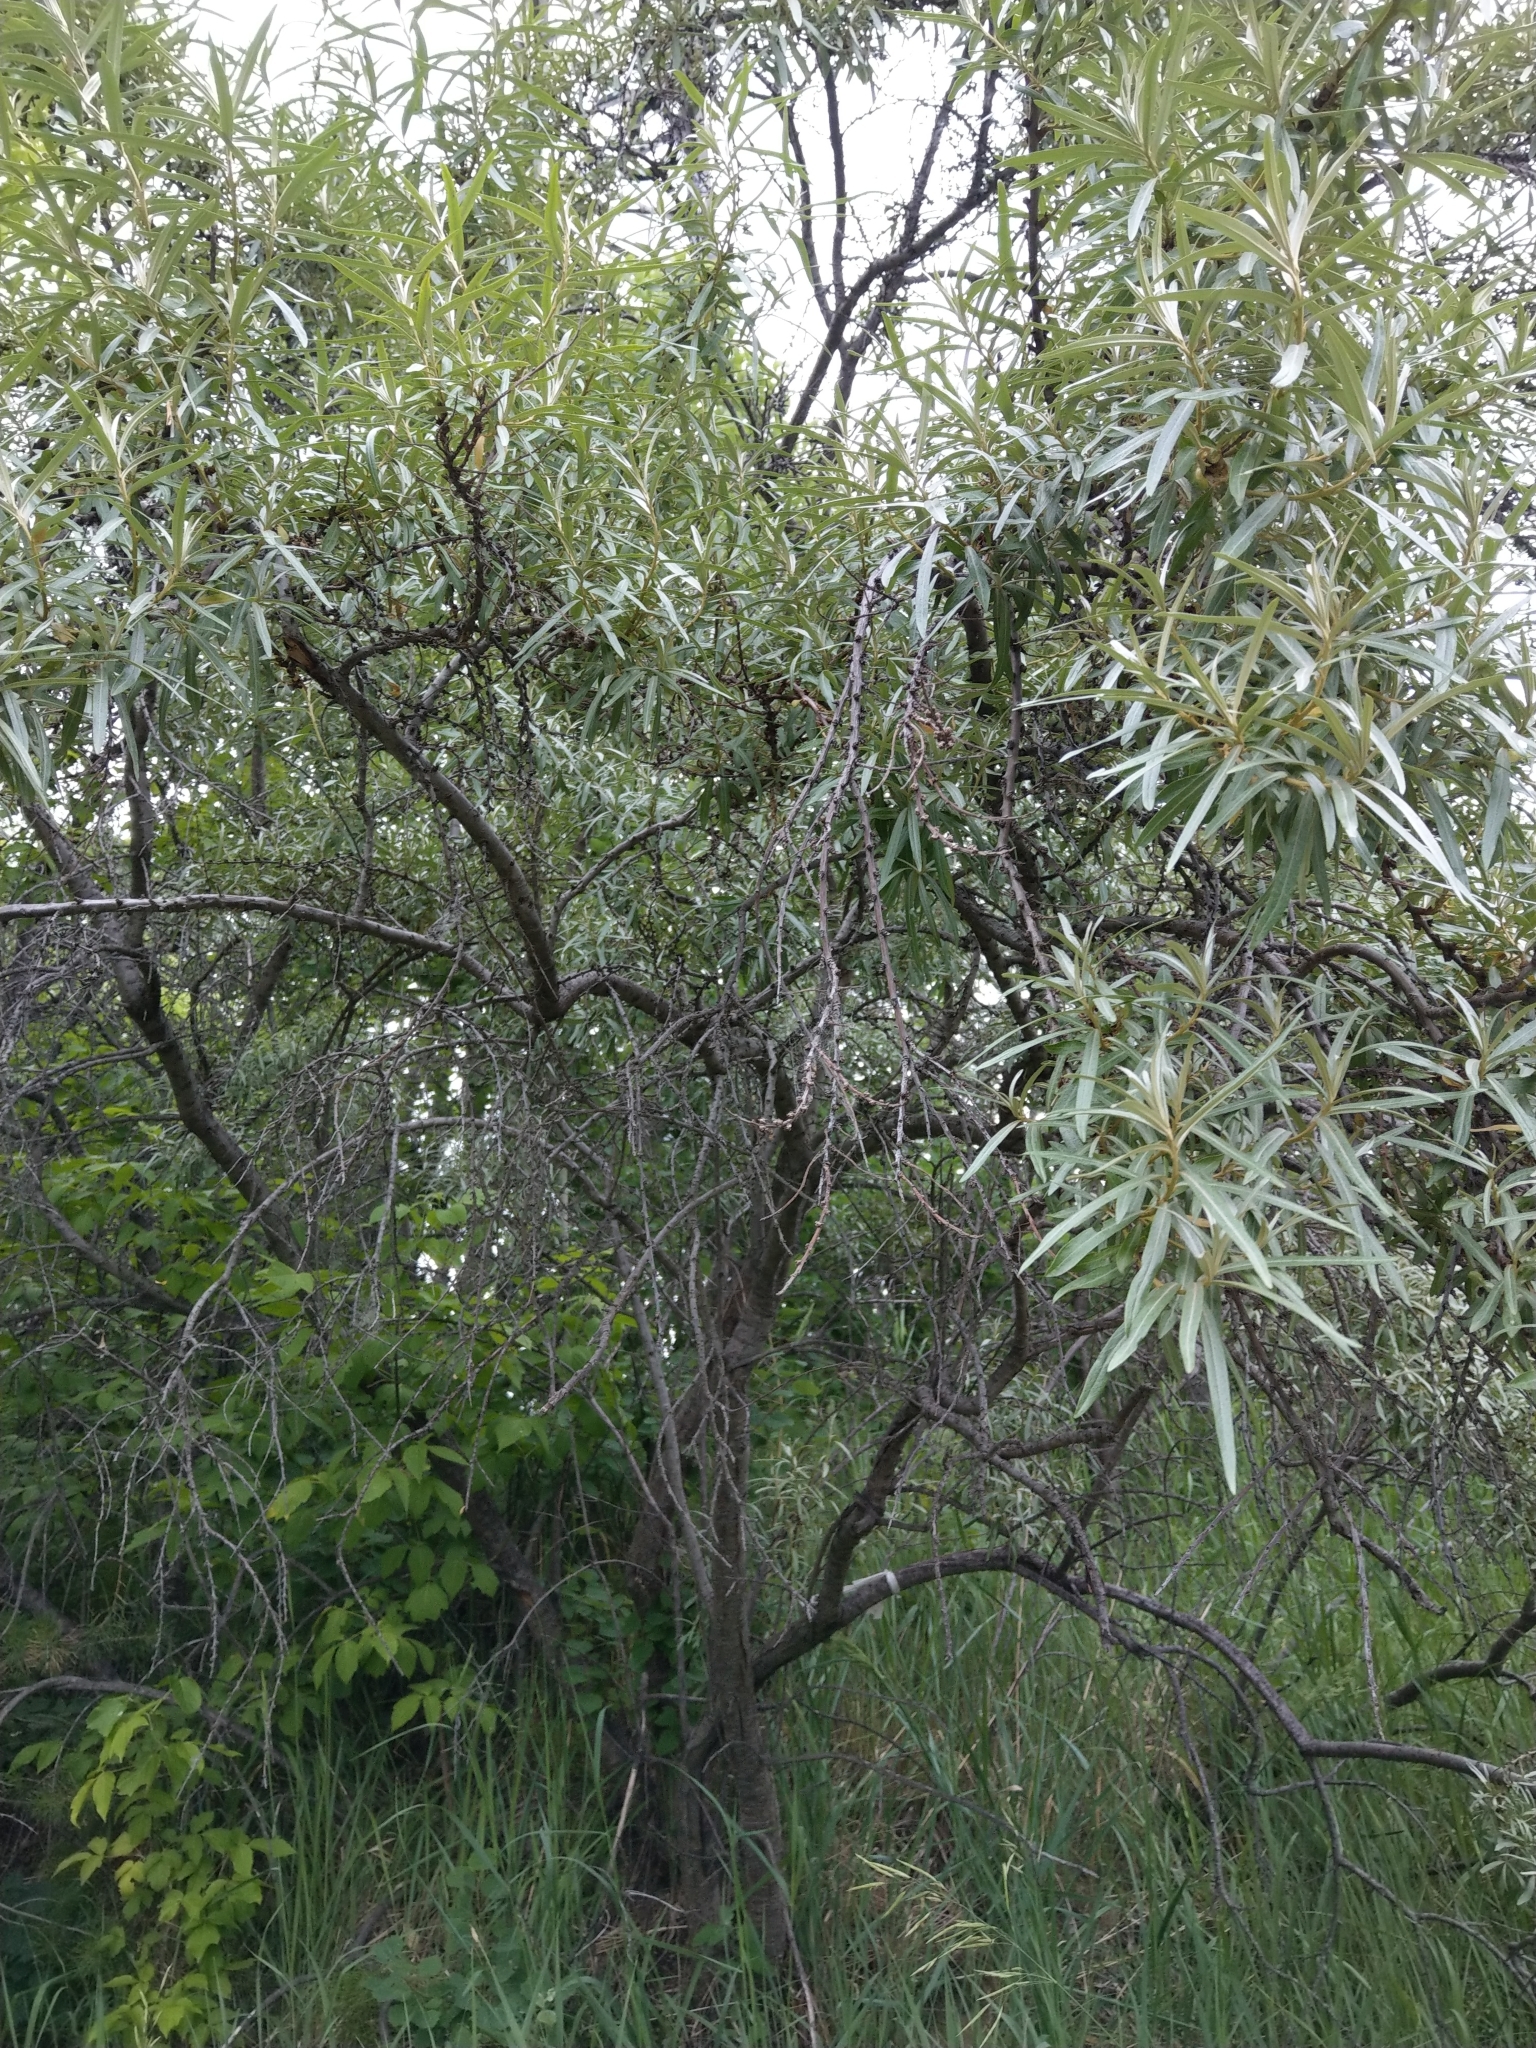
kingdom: Plantae
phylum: Tracheophyta
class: Magnoliopsida
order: Rosales
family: Elaeagnaceae
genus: Hippophae
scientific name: Hippophae rhamnoides
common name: Sea-buckthorn
